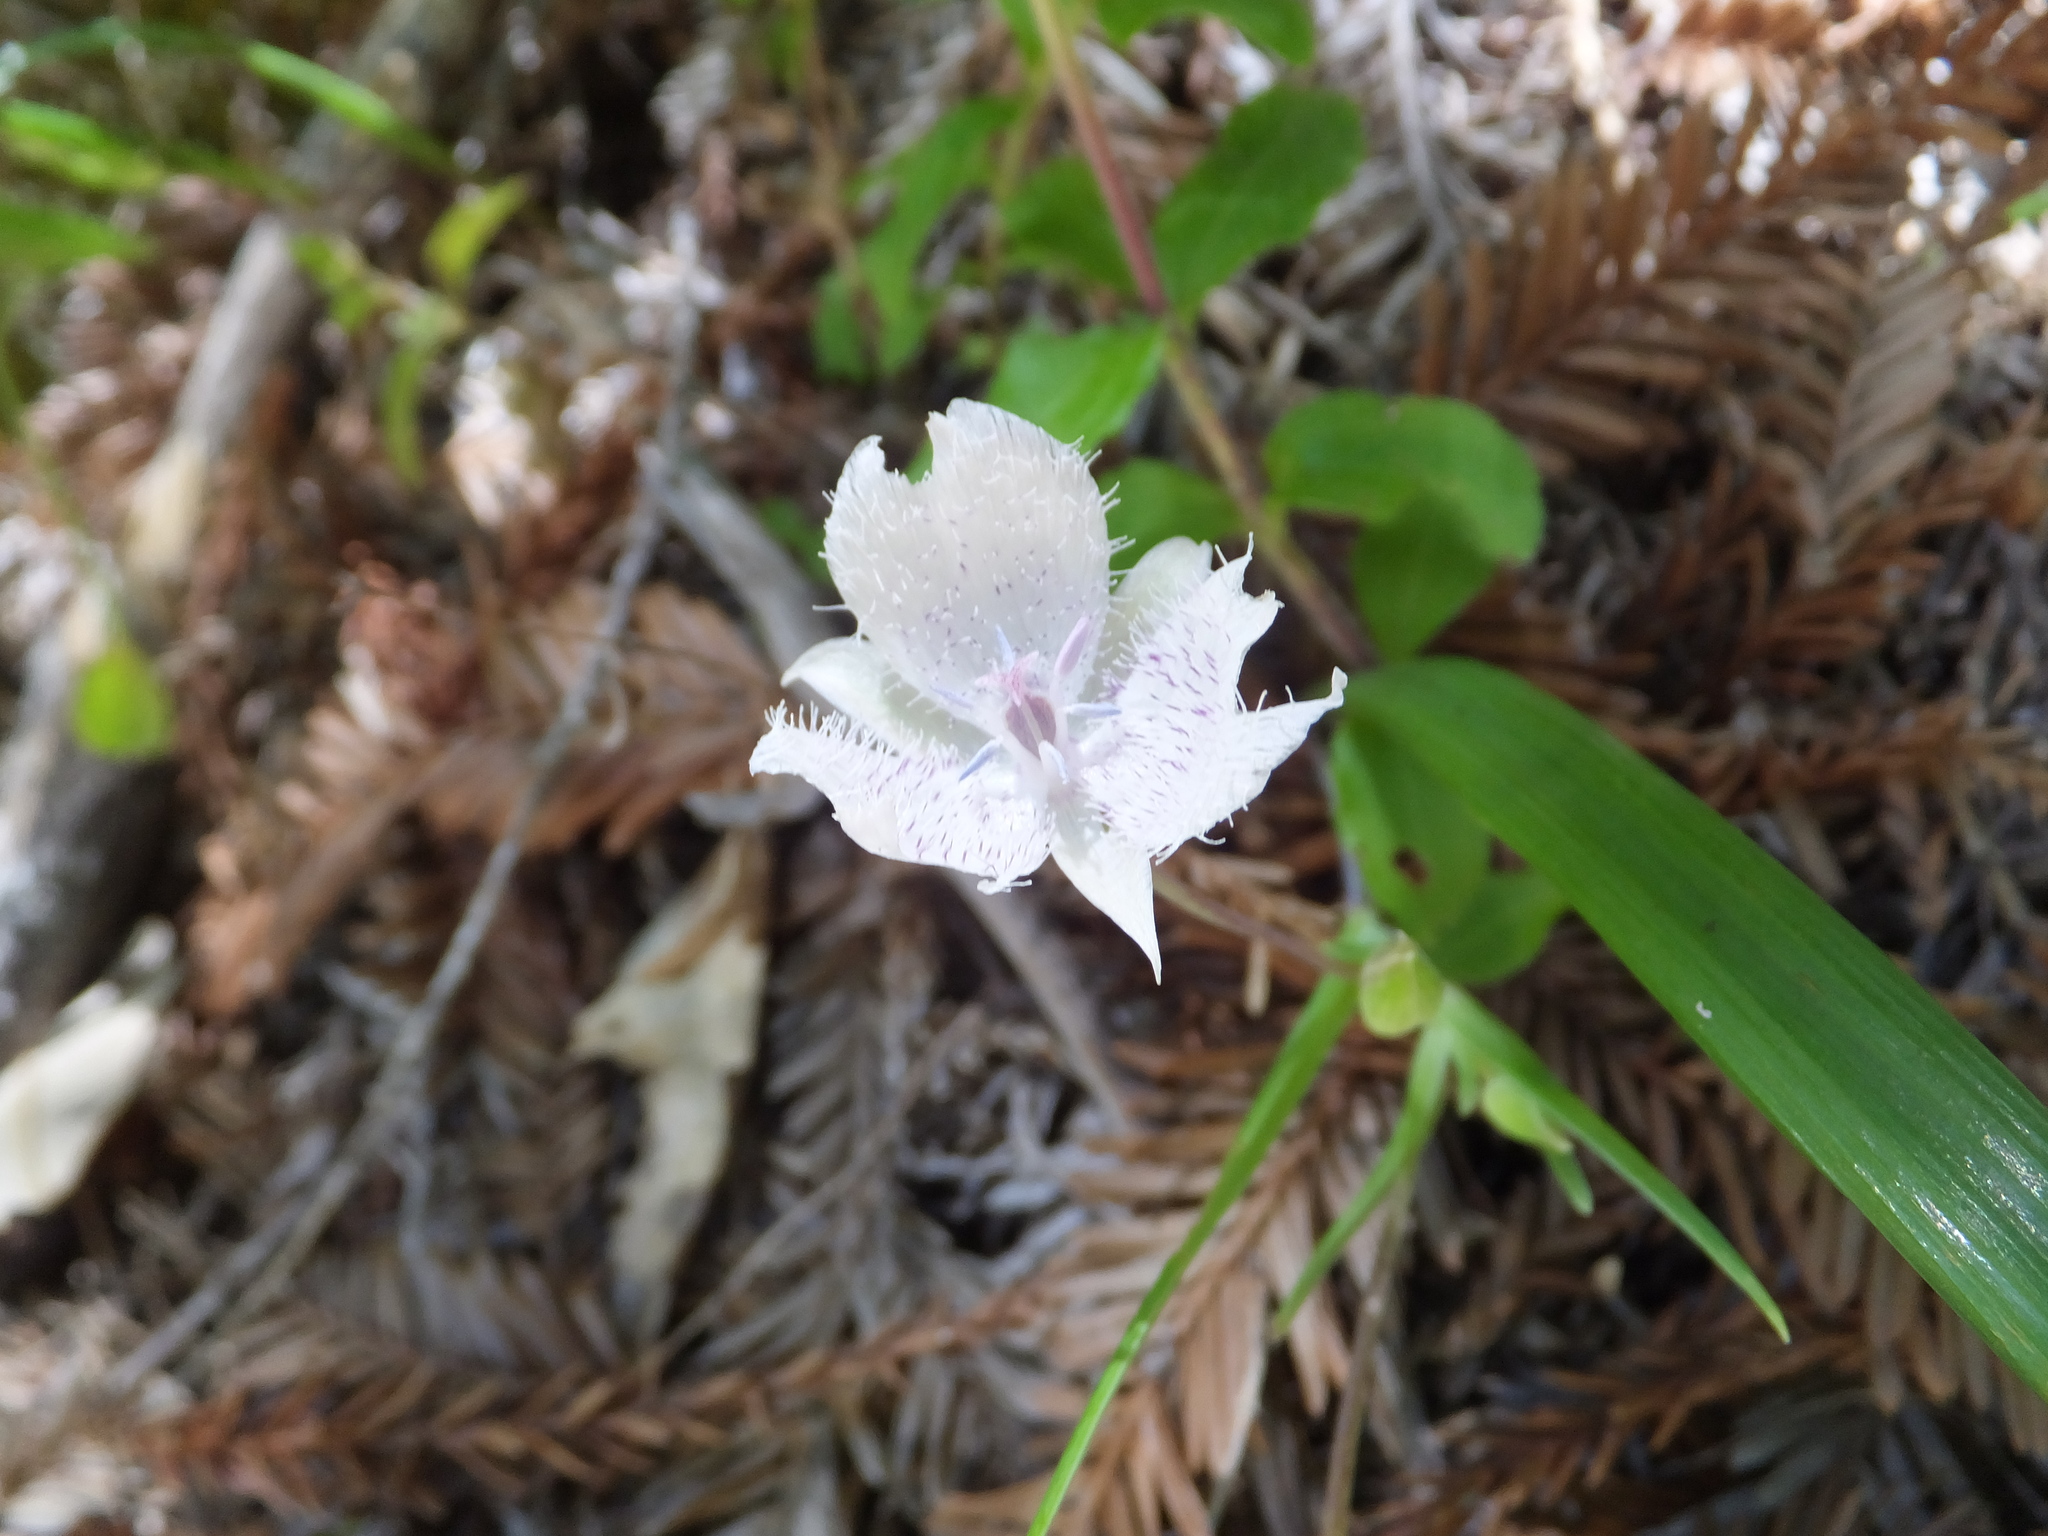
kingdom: Plantae
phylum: Tracheophyta
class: Liliopsida
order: Liliales
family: Liliaceae
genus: Calochortus
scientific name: Calochortus tolmiei
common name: Pussy-ears
